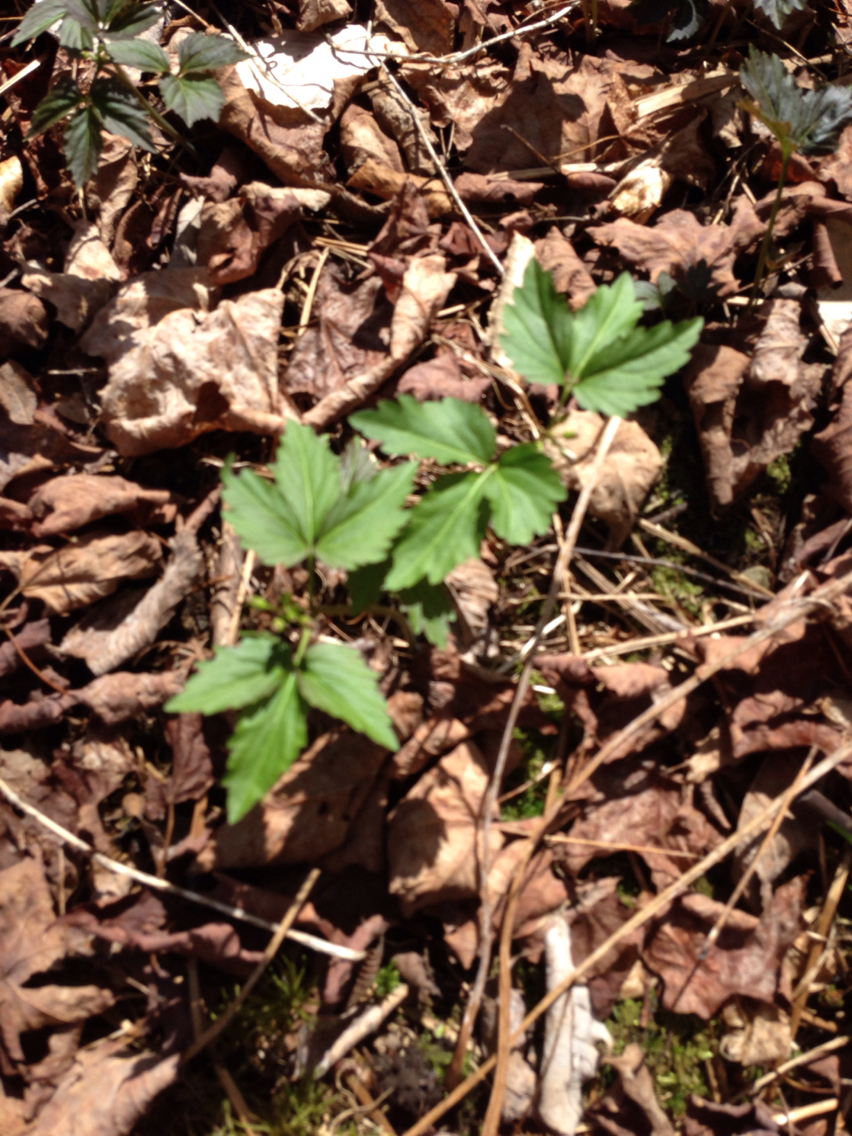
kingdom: Plantae
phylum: Tracheophyta
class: Magnoliopsida
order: Brassicales
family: Brassicaceae
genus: Cardamine
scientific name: Cardamine diphylla
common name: Broad-leaved toothwort
